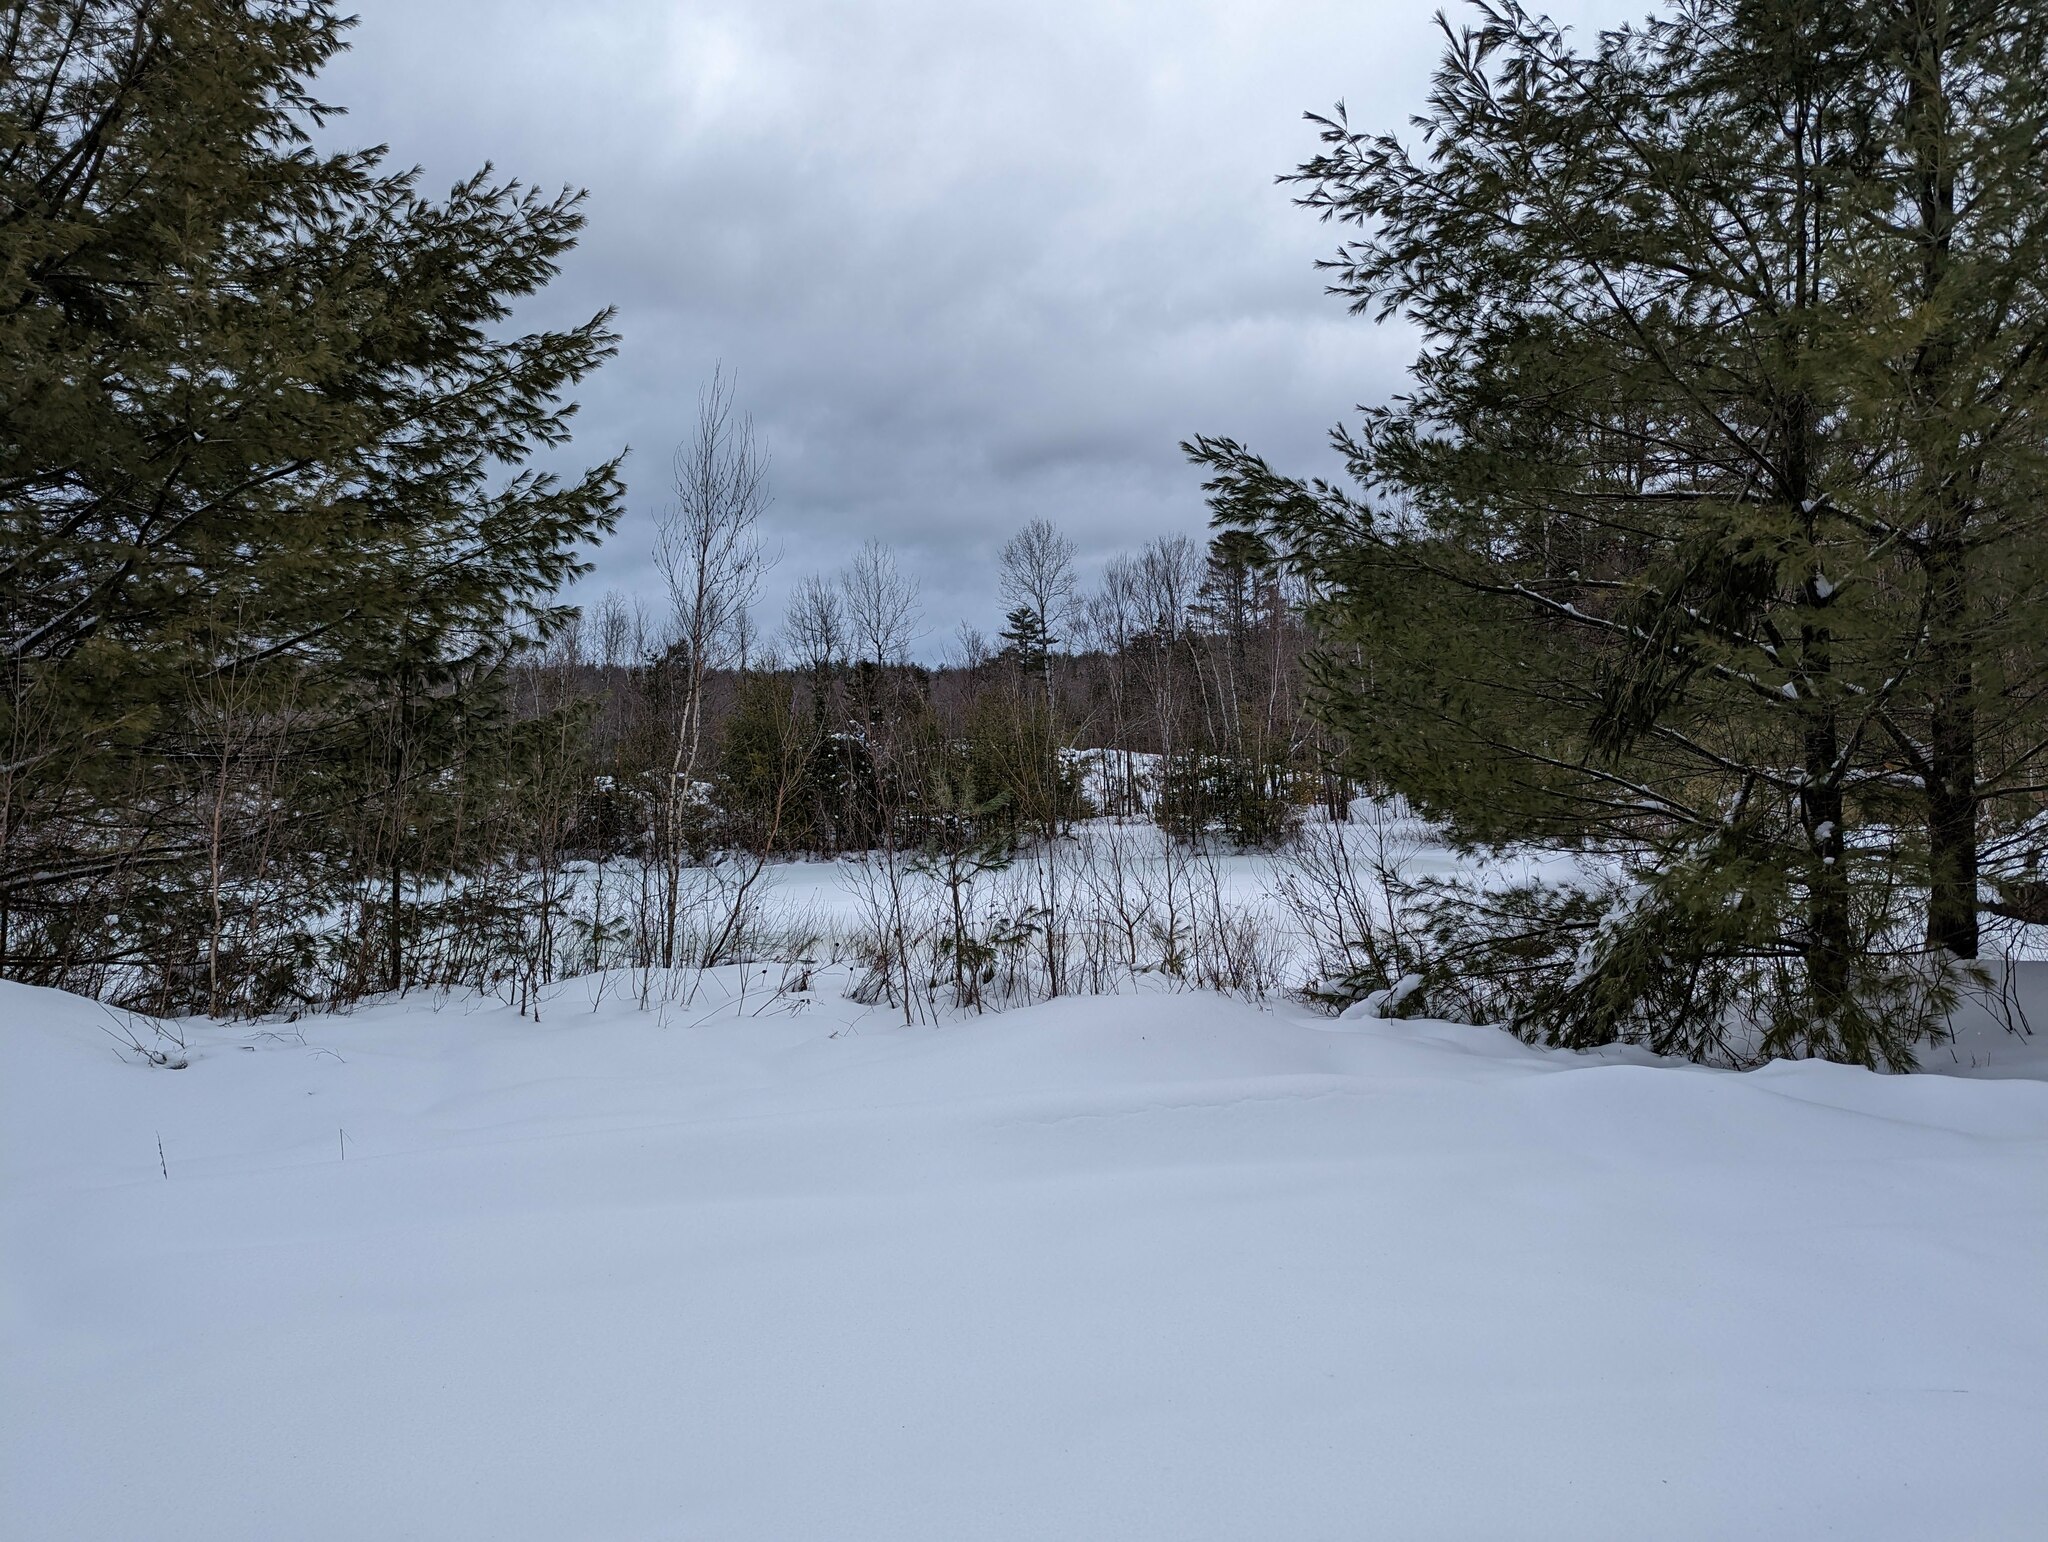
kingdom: Plantae
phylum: Tracheophyta
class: Pinopsida
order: Pinales
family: Pinaceae
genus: Pinus
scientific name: Pinus strobus
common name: Weymouth pine
